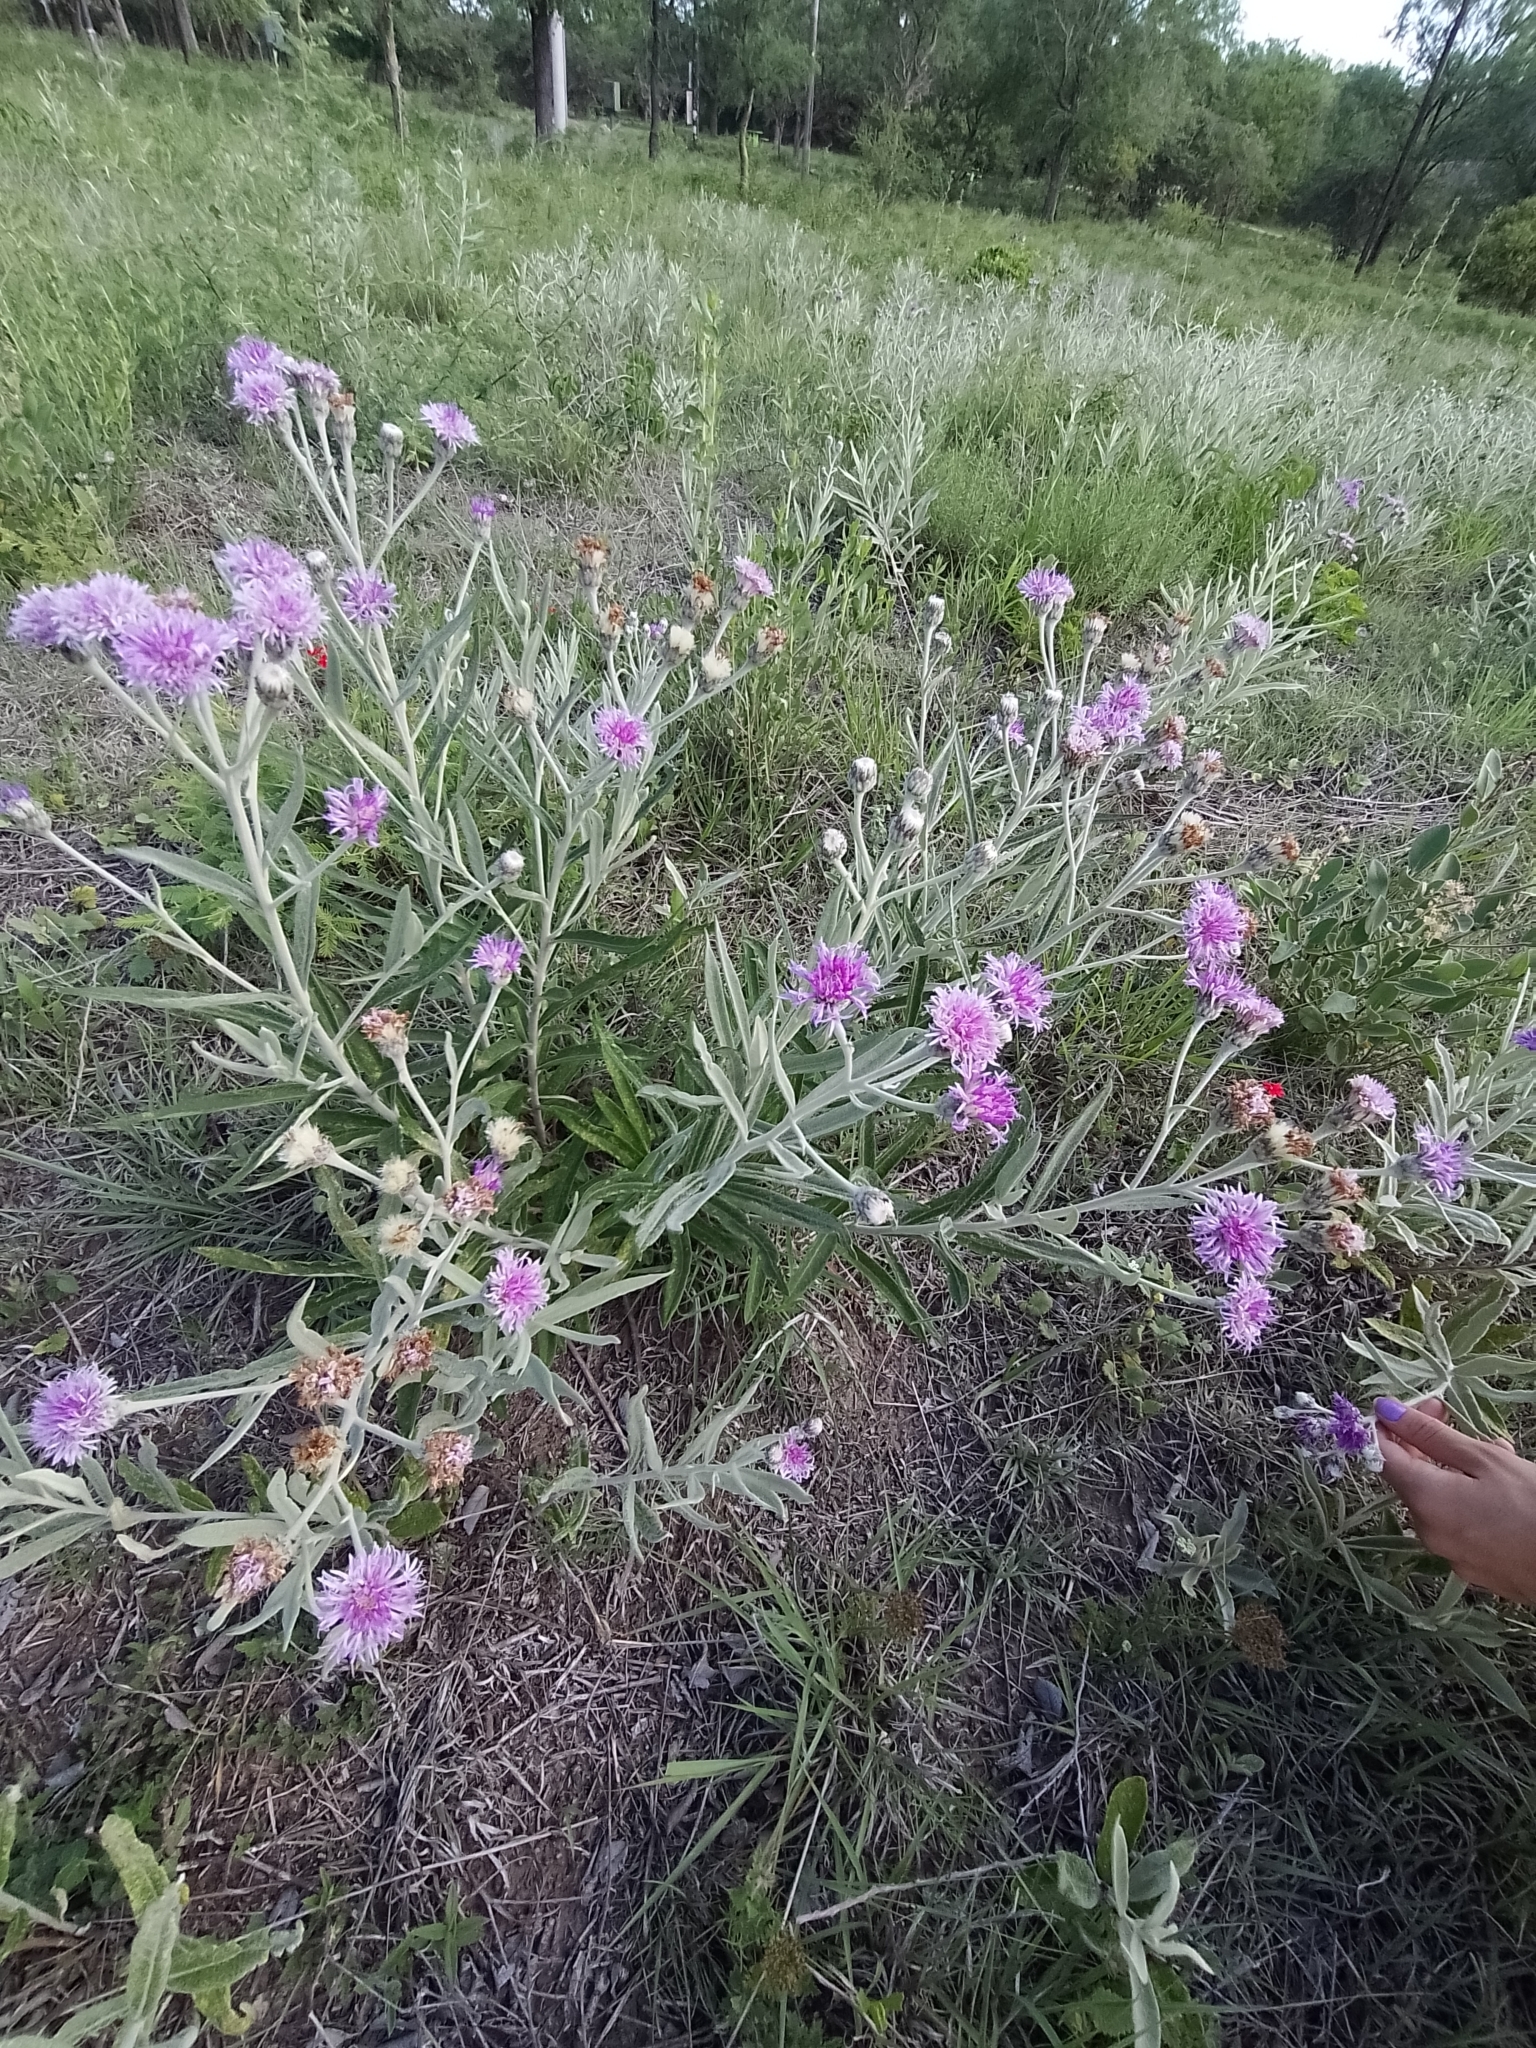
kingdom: Plantae
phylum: Tracheophyta
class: Magnoliopsida
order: Asterales
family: Asteraceae
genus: Lessingianthus
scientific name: Lessingianthus mollissimus
